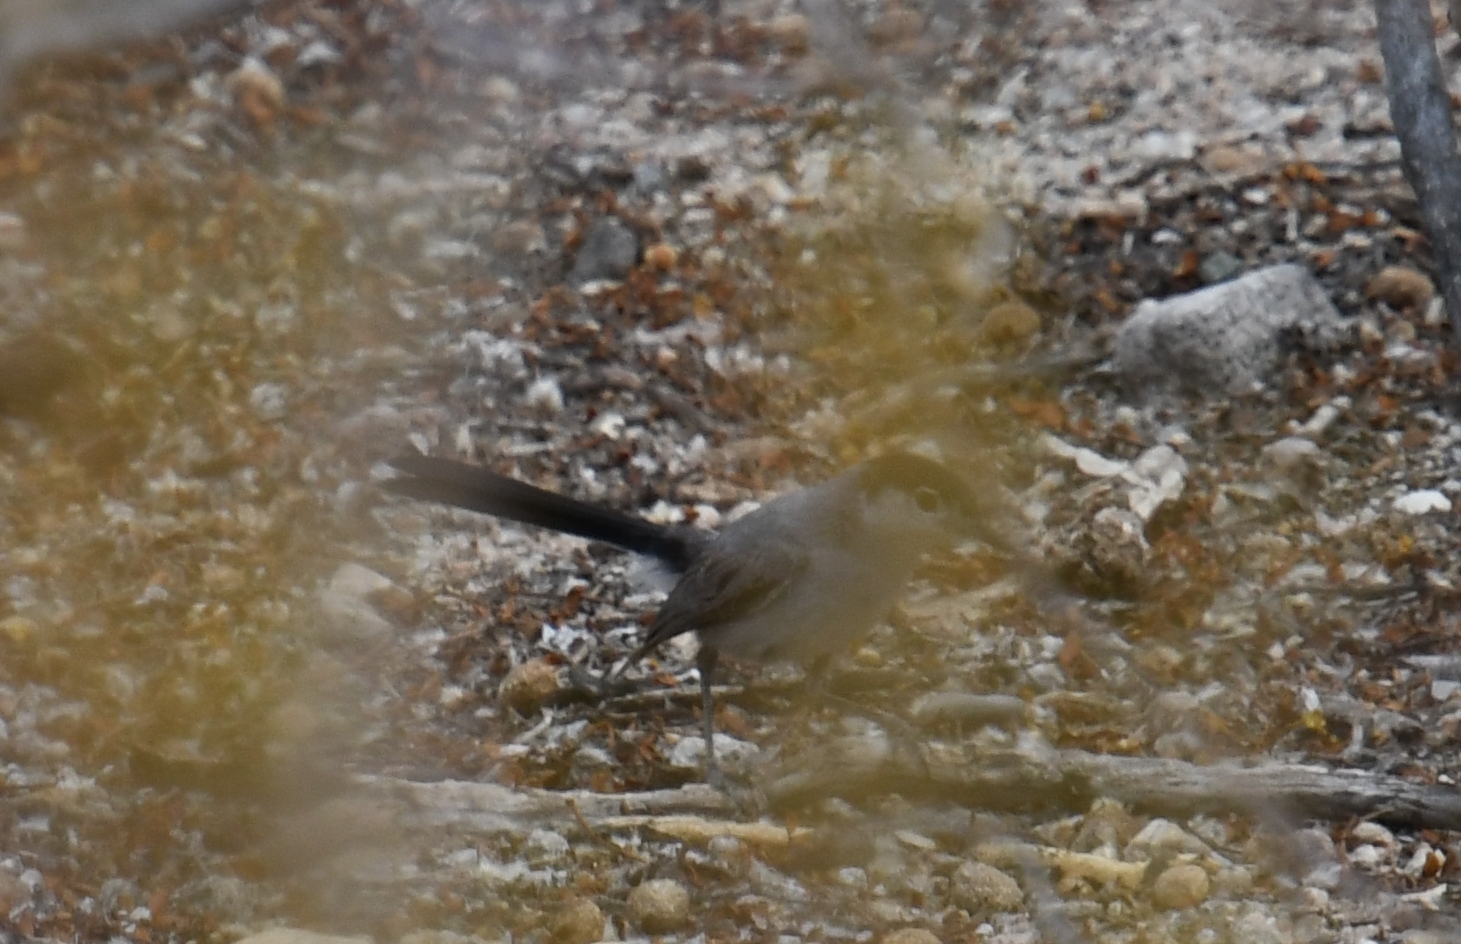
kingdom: Animalia
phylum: Chordata
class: Aves
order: Passeriformes
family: Polioptilidae
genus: Polioptila
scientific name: Polioptila melanura
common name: Black-tailed gnatcatcher
